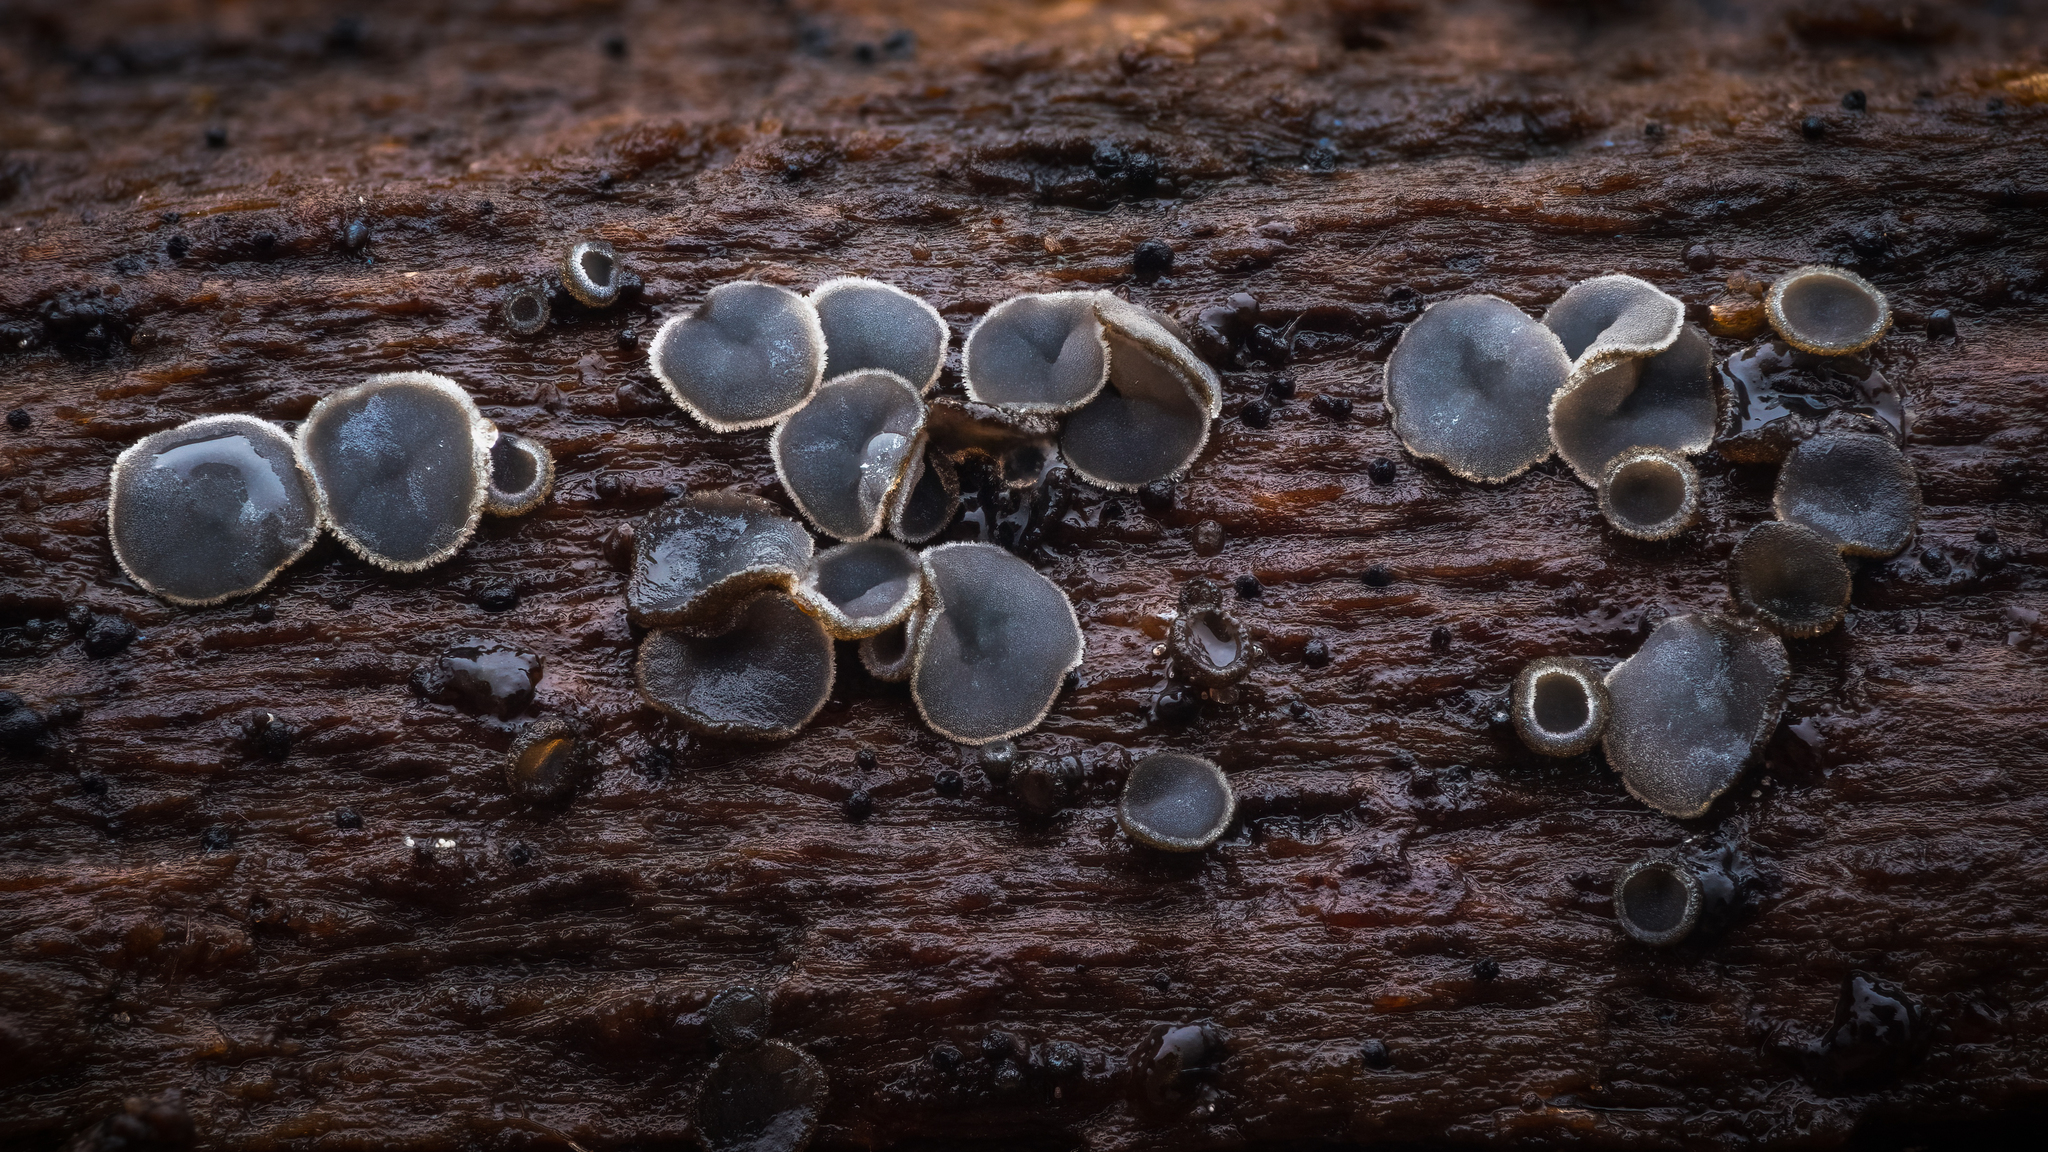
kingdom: Fungi
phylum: Ascomycota
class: Leotiomycetes
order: Helotiales
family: Mollisiaceae
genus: Mollisia
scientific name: Mollisia cinerea
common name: Common grey disco
